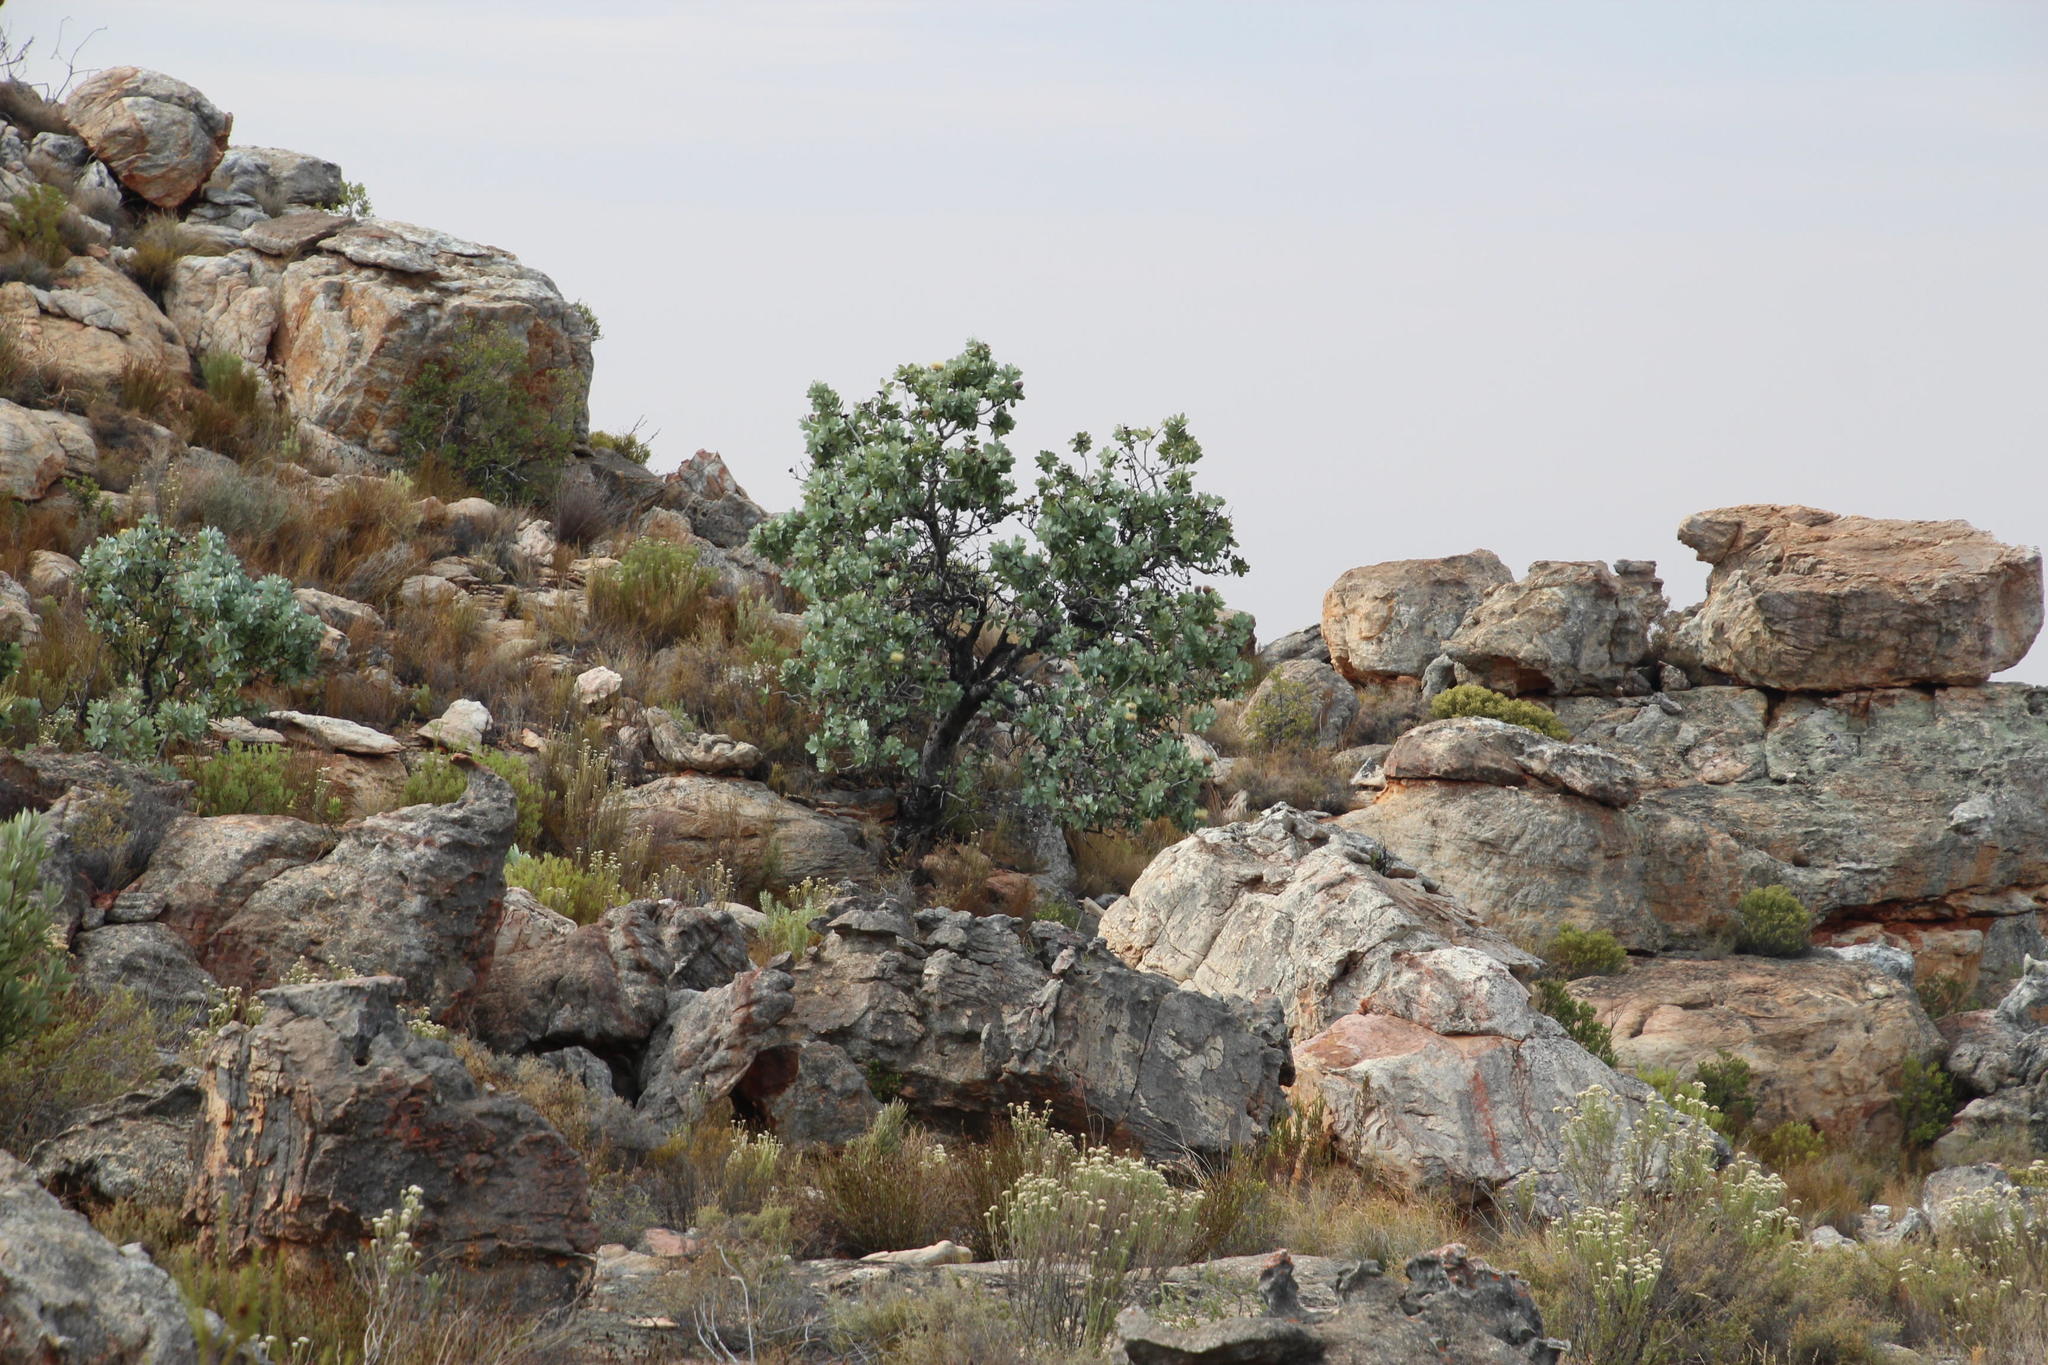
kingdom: Plantae
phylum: Tracheophyta
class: Magnoliopsida
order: Proteales
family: Proteaceae
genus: Protea
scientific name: Protea nitida
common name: Tree protea
